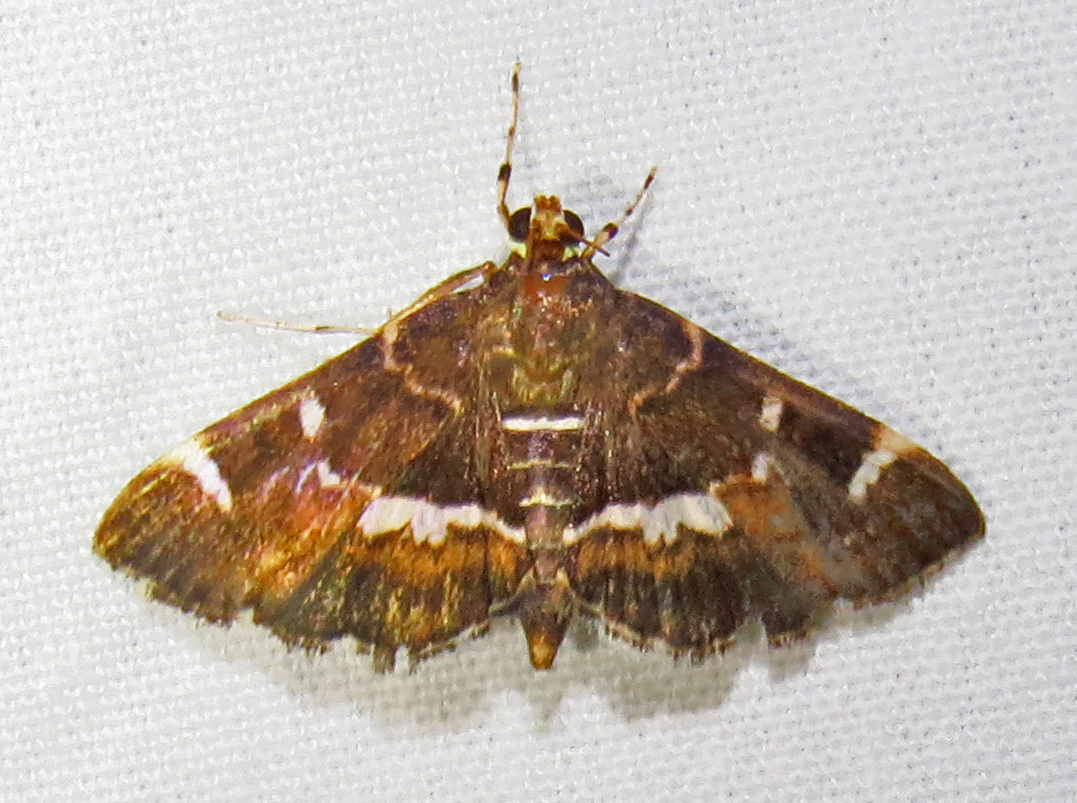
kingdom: Animalia
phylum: Arthropoda
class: Insecta
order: Lepidoptera
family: Crambidae
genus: Hymenia
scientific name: Hymenia perspectalis
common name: Spotted beet webworm
